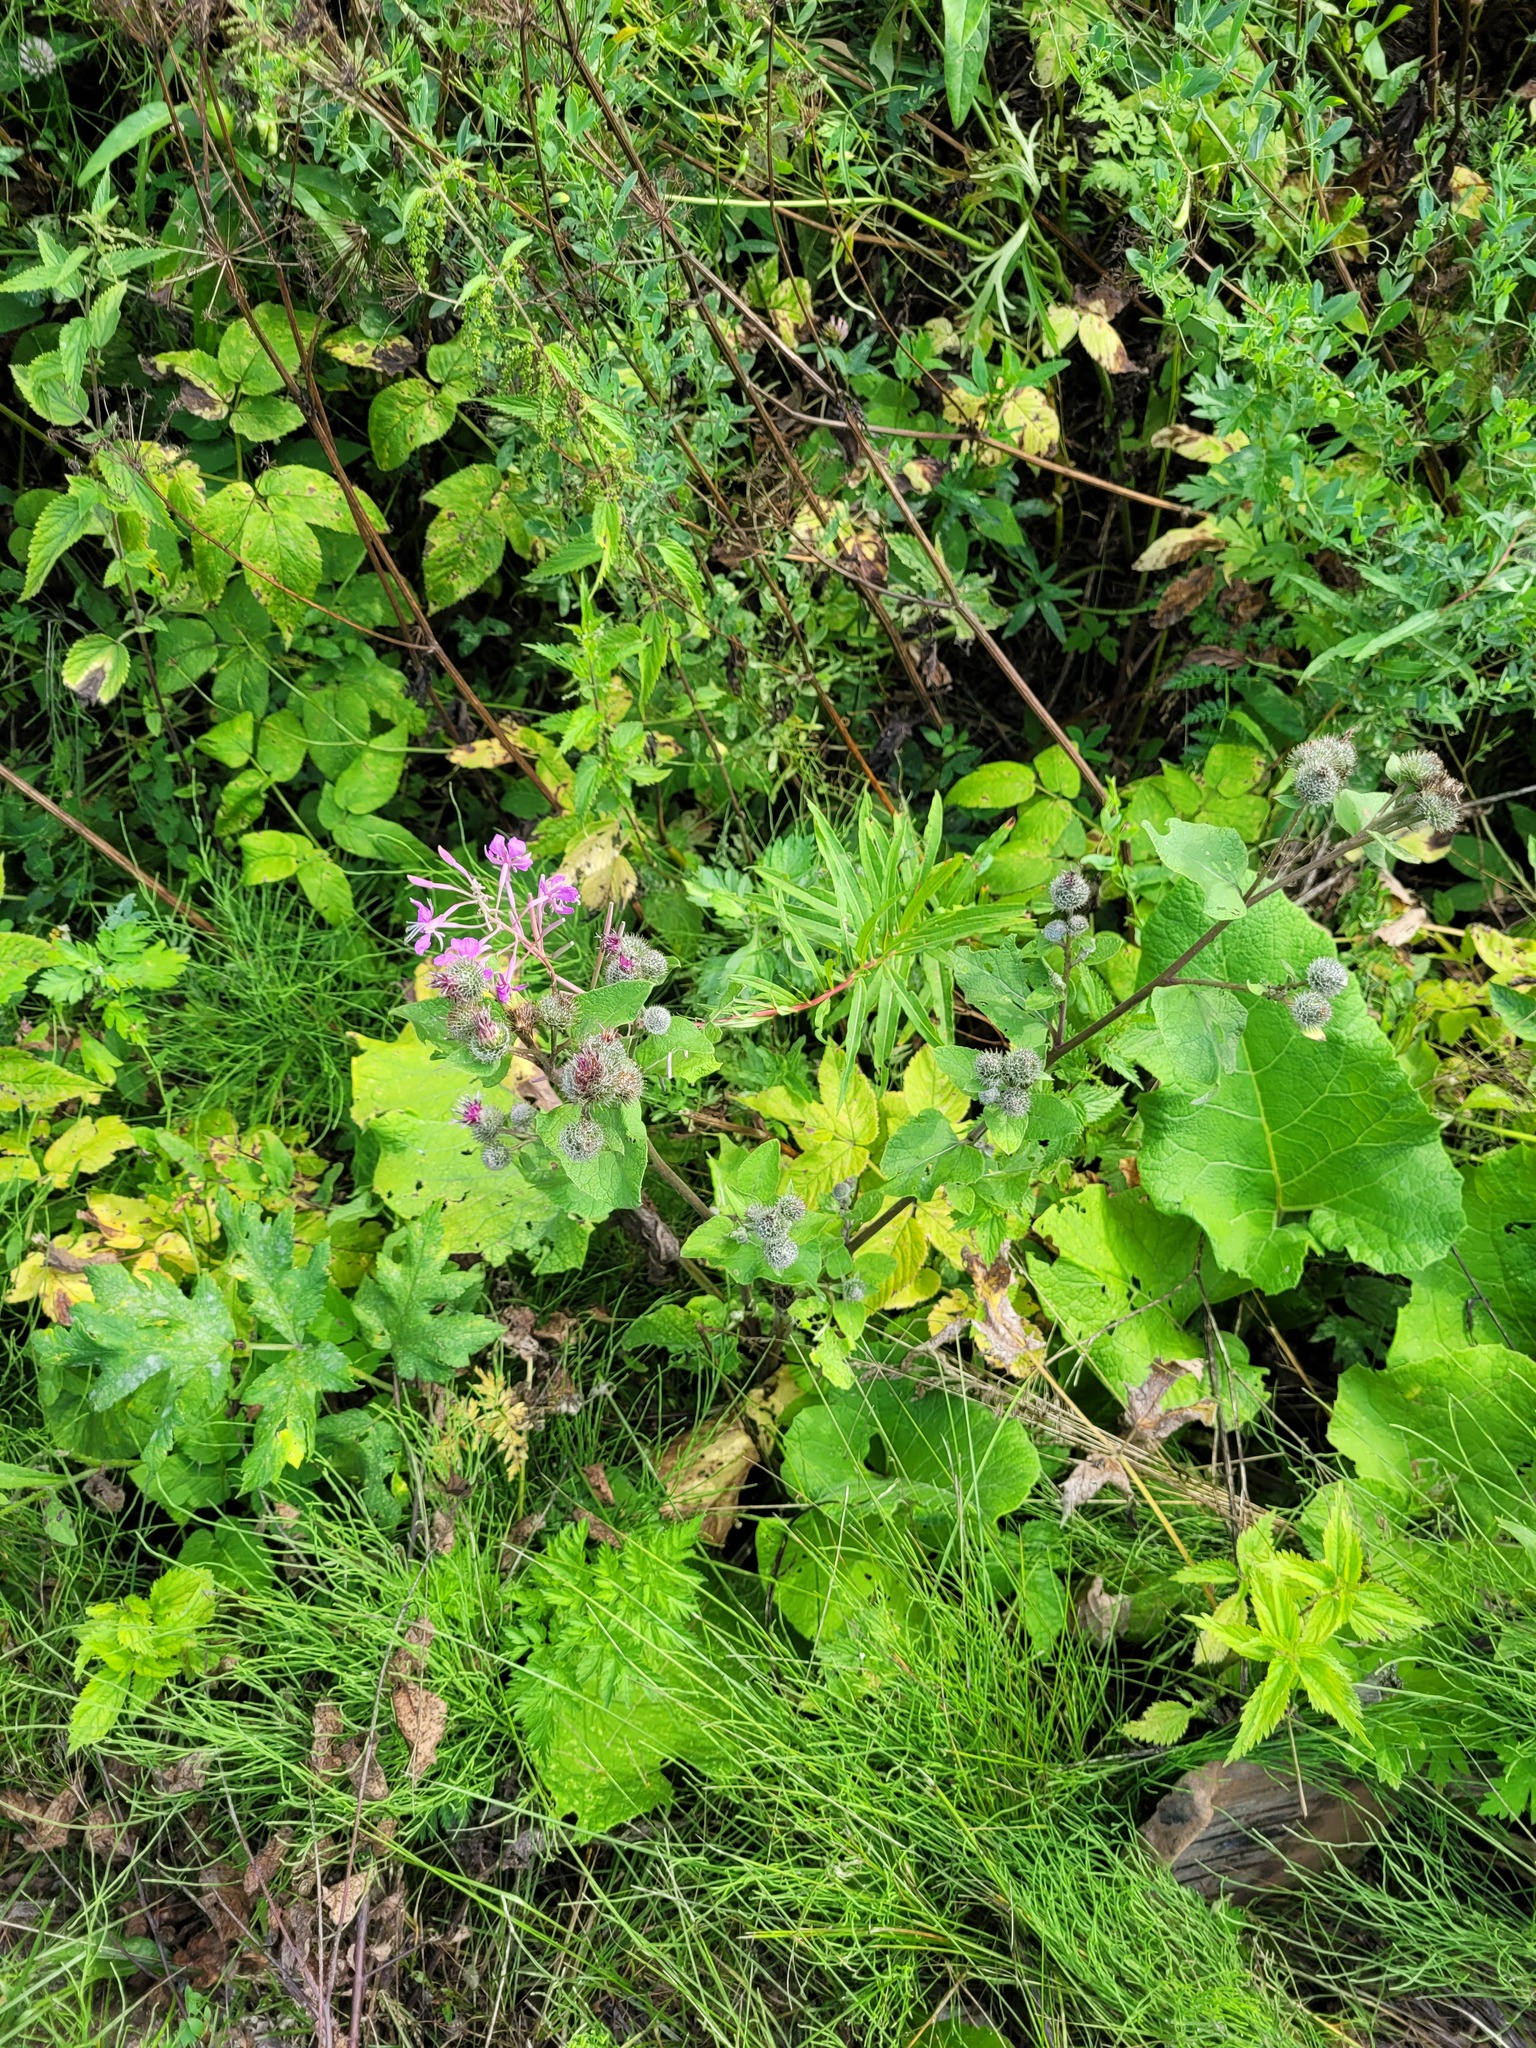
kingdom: Plantae
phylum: Tracheophyta
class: Magnoliopsida
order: Asterales
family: Asteraceae
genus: Arctium
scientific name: Arctium tomentosum
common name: Woolly burdock
